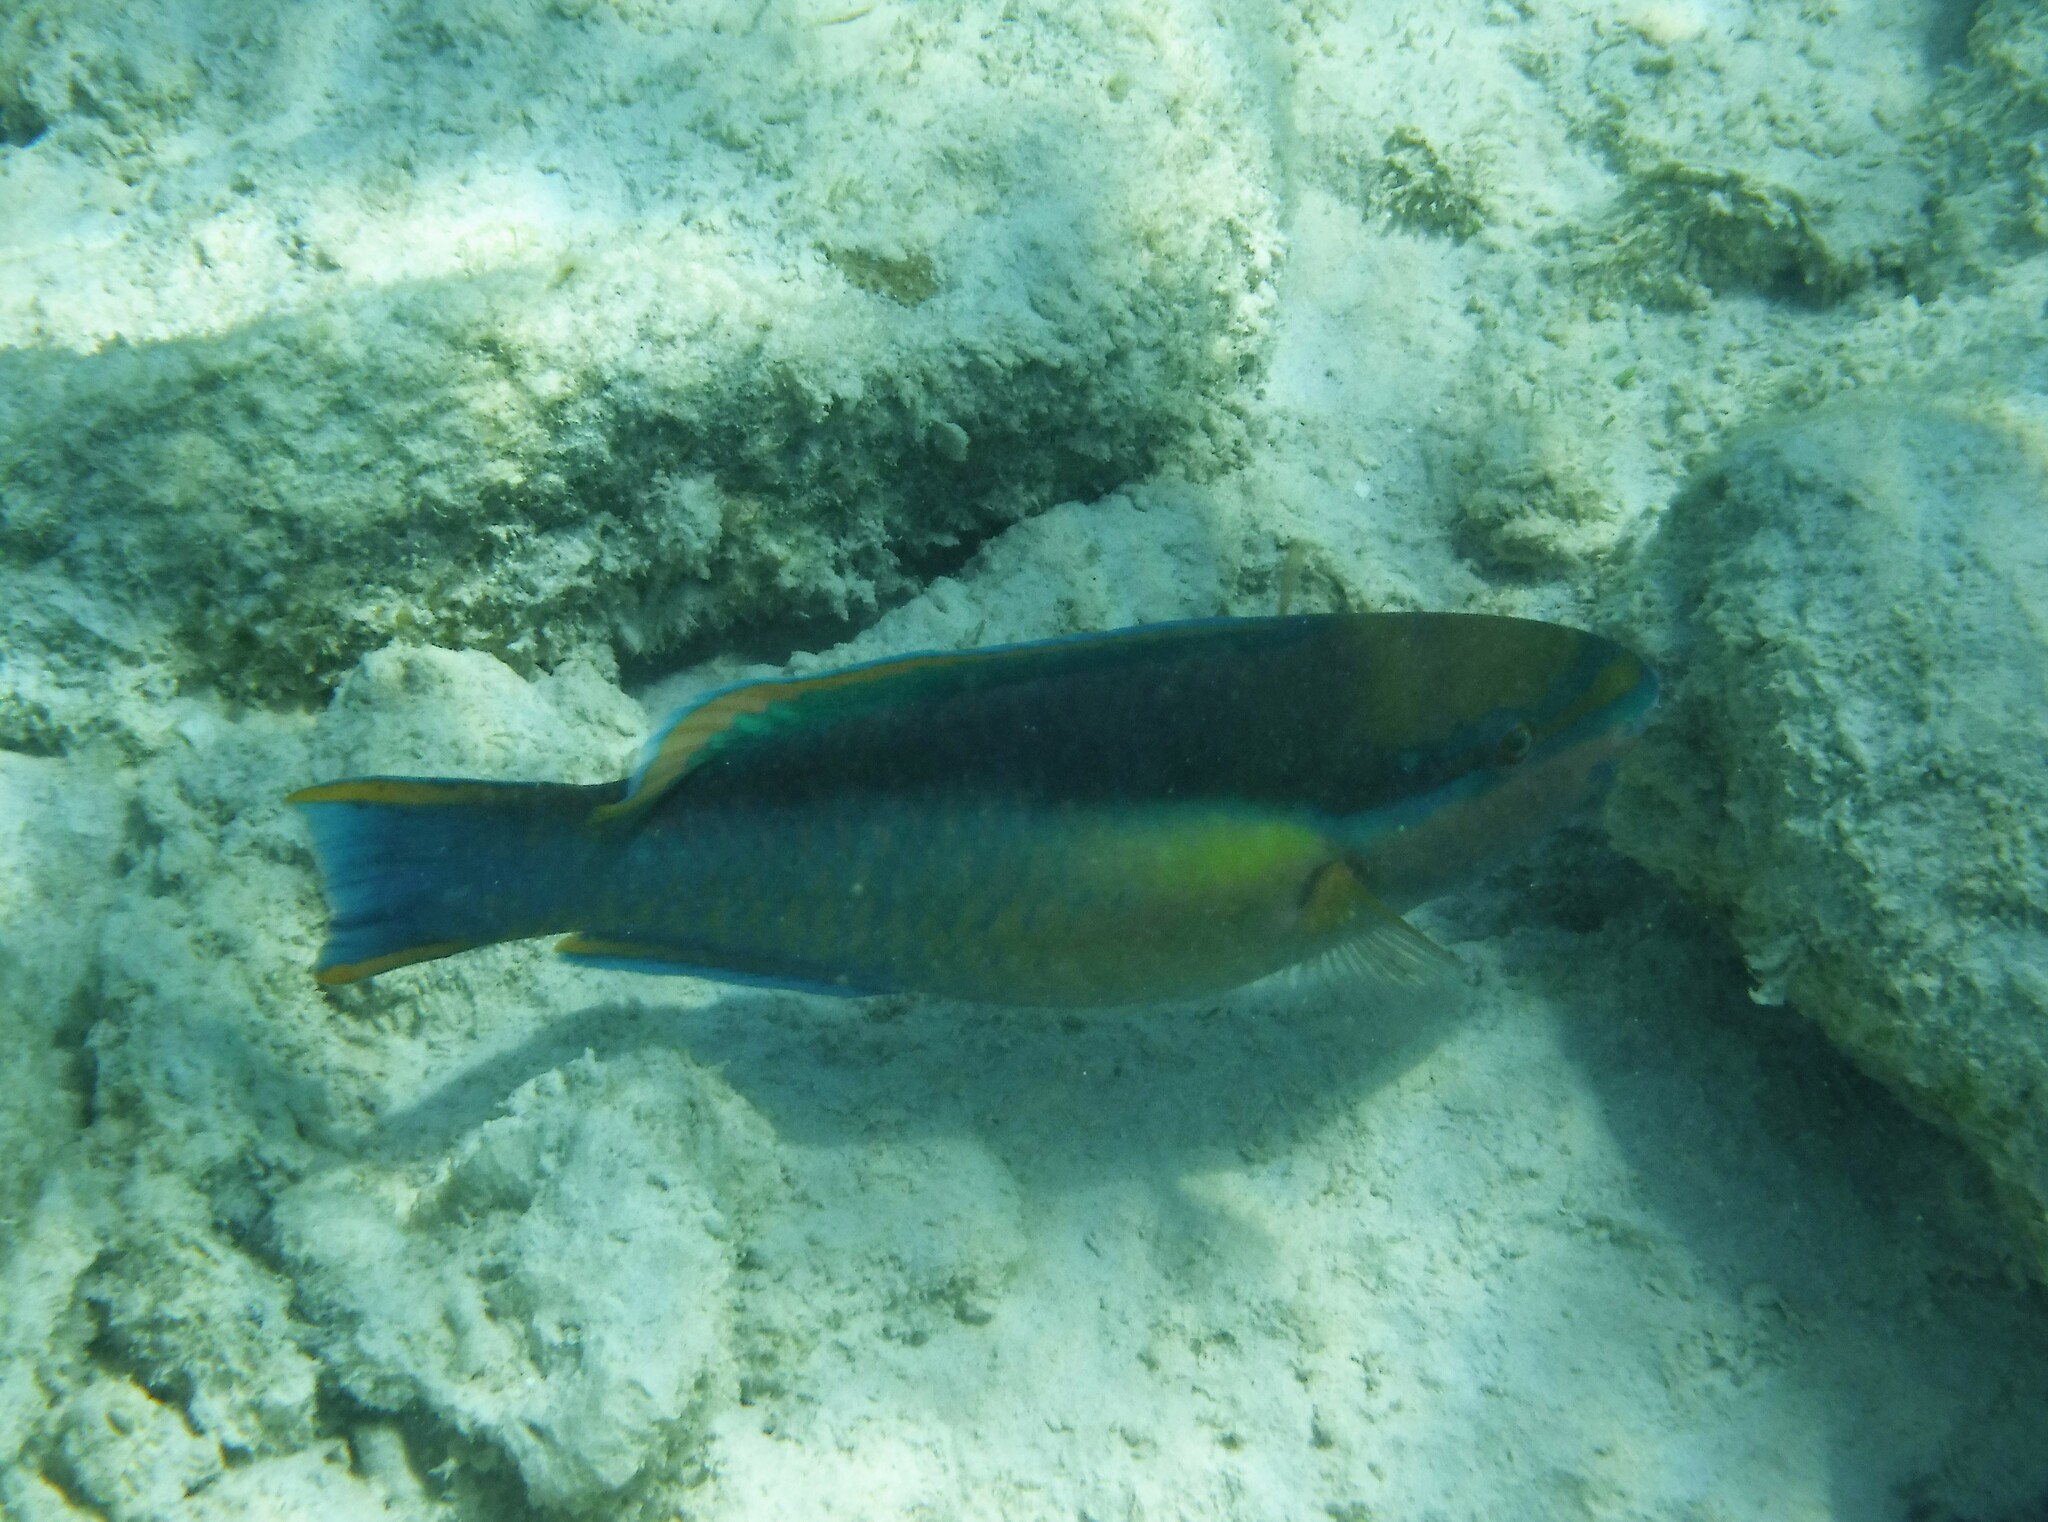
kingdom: Animalia
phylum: Chordata
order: Perciformes
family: Scaridae
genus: Scarus
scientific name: Scarus taeniopterus
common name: Princess parrotfish
